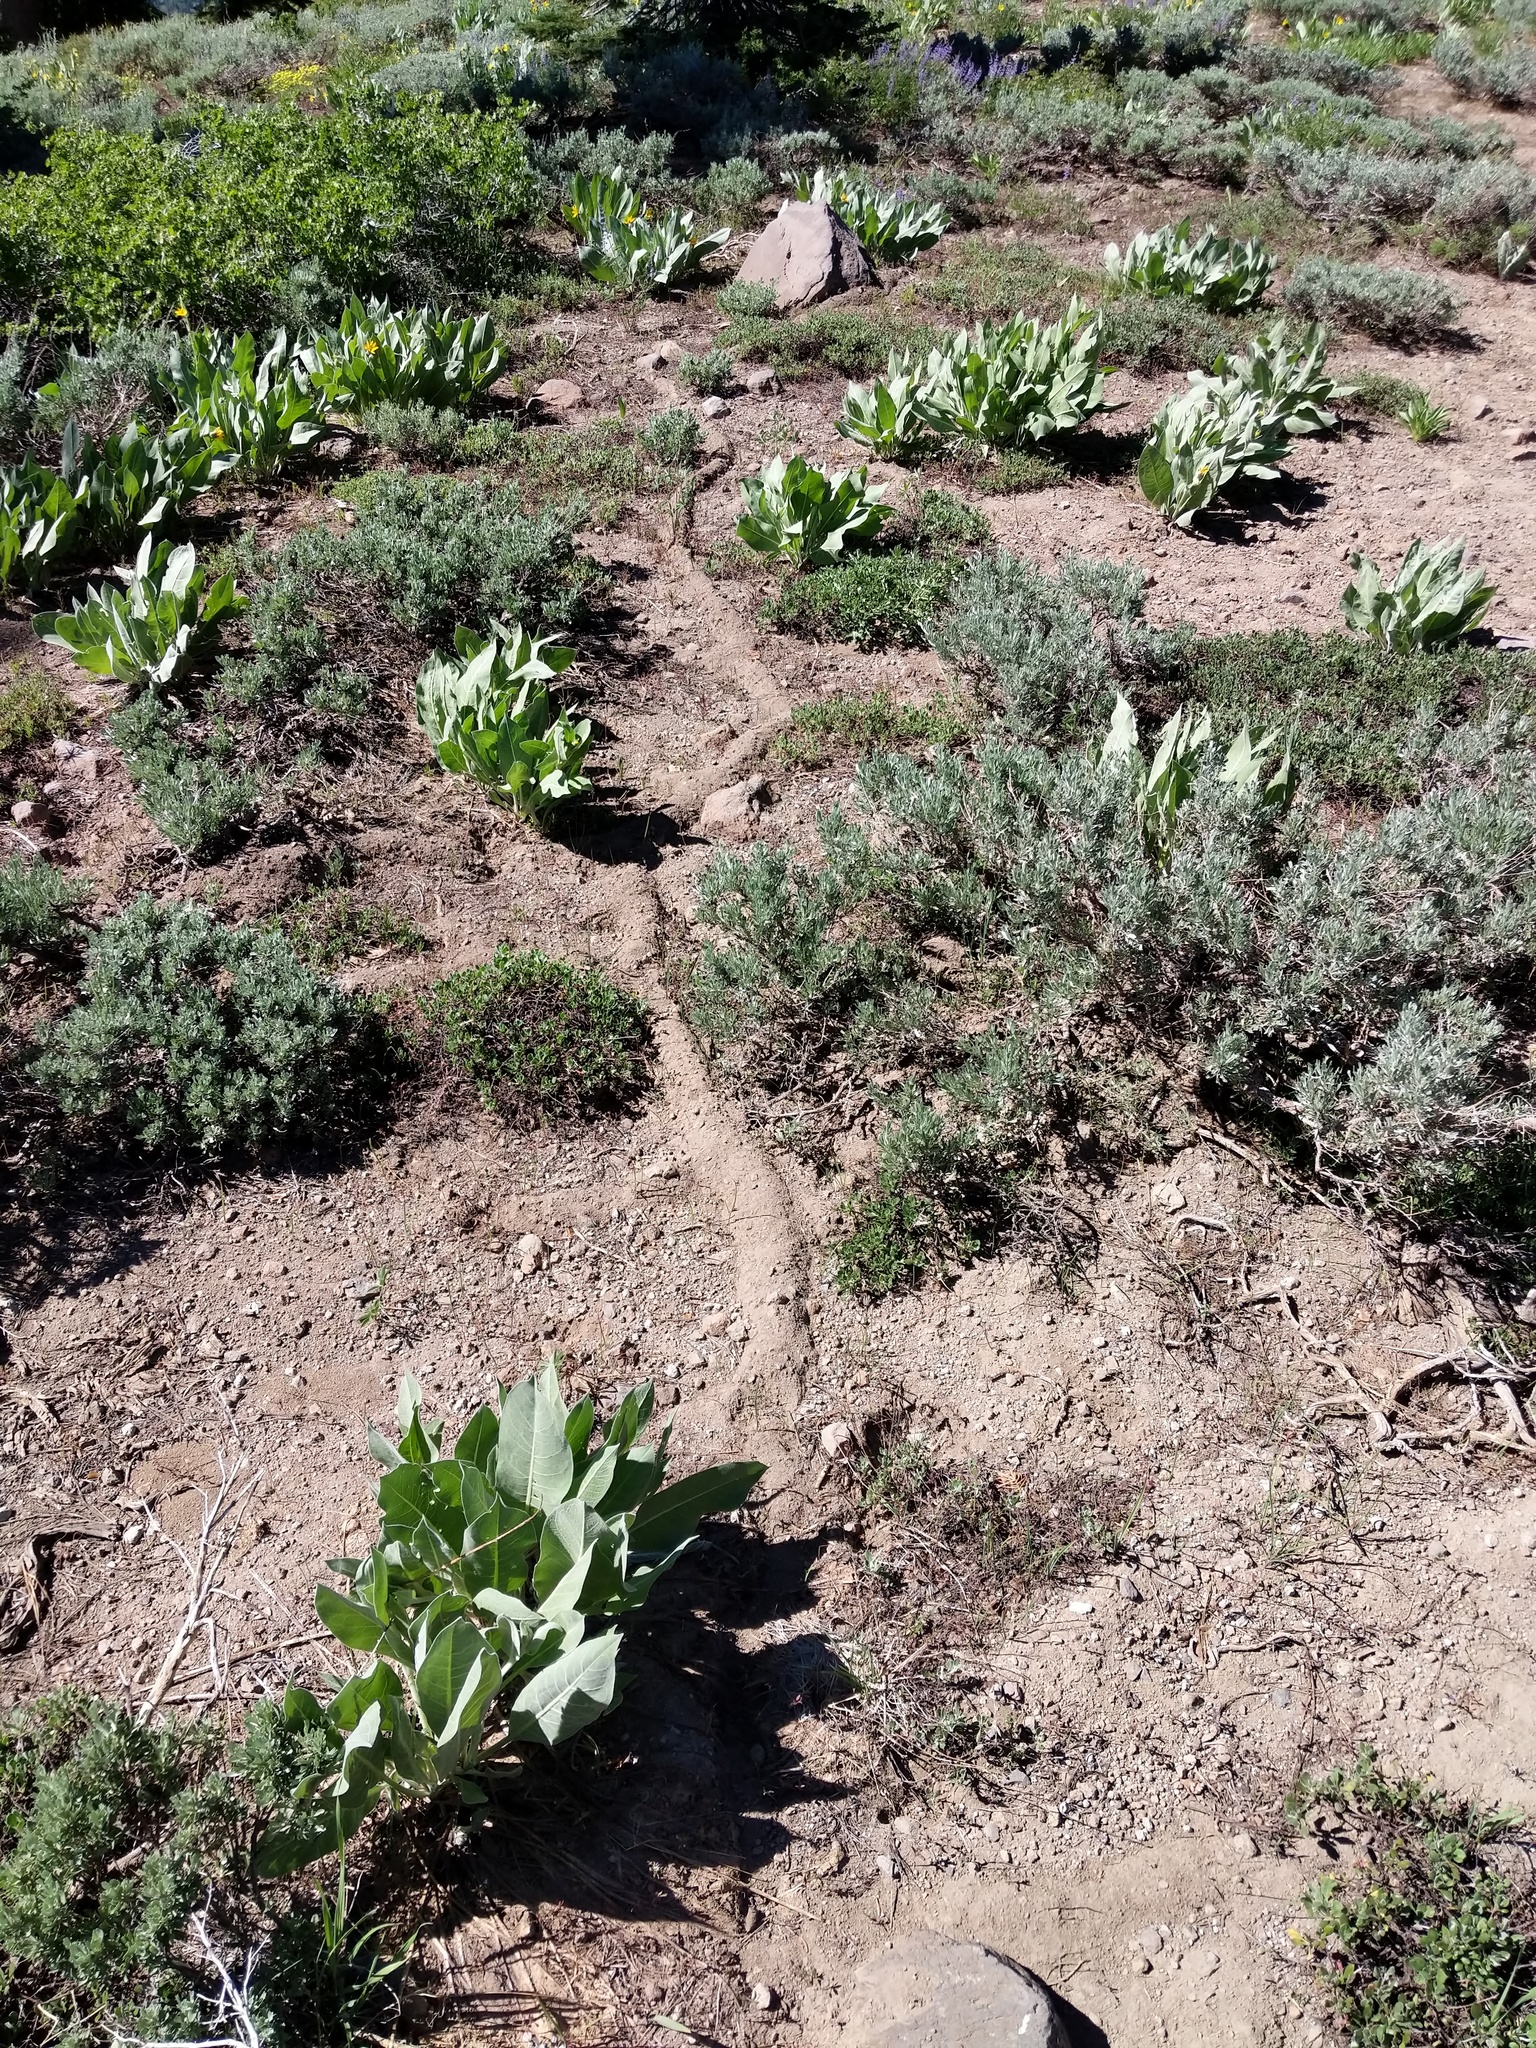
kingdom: Animalia
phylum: Chordata
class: Mammalia
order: Rodentia
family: Geomyidae
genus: Thomomys
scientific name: Thomomys monticola
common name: Mountain pocket gopher
